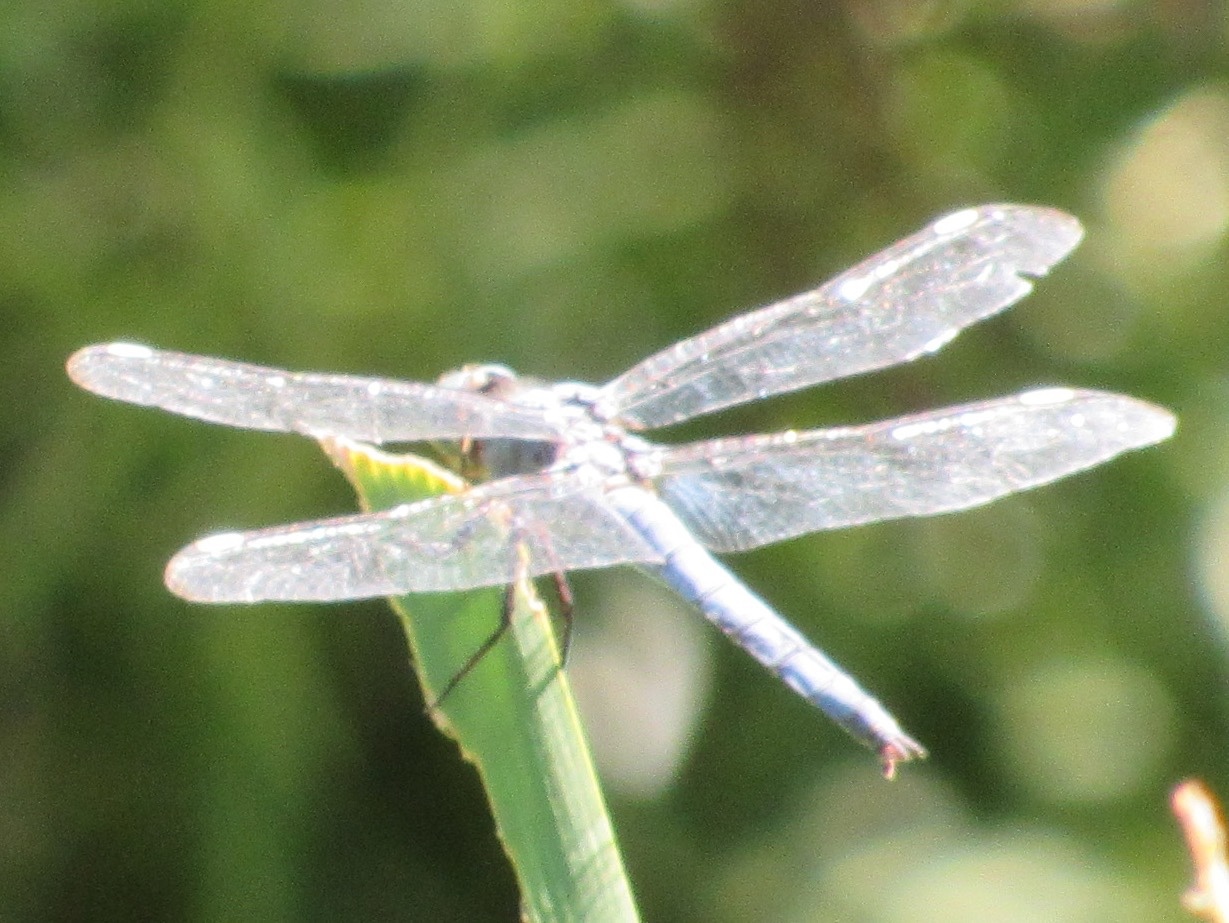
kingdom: Animalia
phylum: Arthropoda
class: Insecta
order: Odonata
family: Libellulidae
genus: Libellula
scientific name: Libellula comanche
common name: Comanche skimmer
